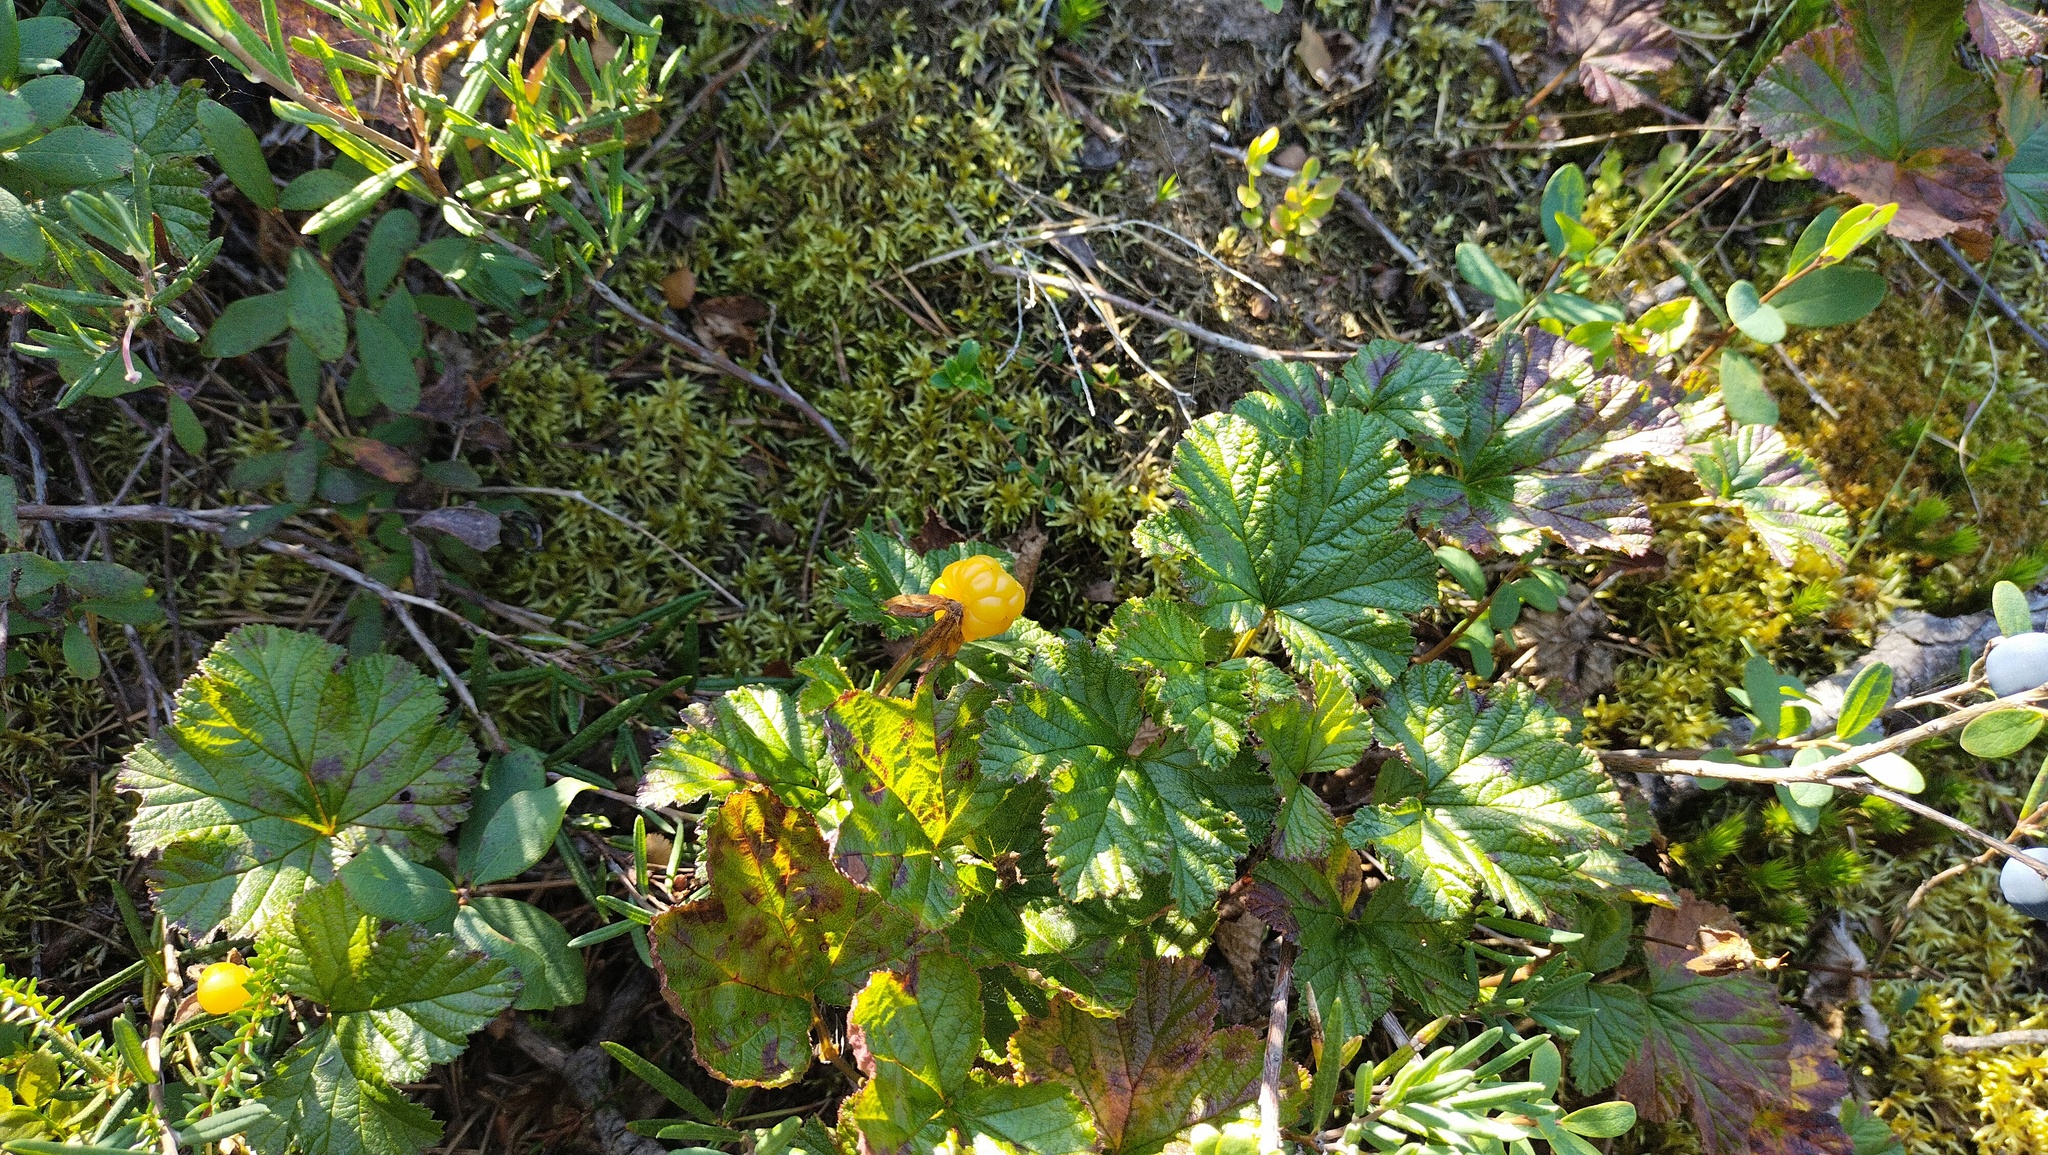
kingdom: Plantae
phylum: Tracheophyta
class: Magnoliopsida
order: Rosales
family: Rosaceae
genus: Rubus
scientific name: Rubus chamaemorus
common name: Cloudberry
